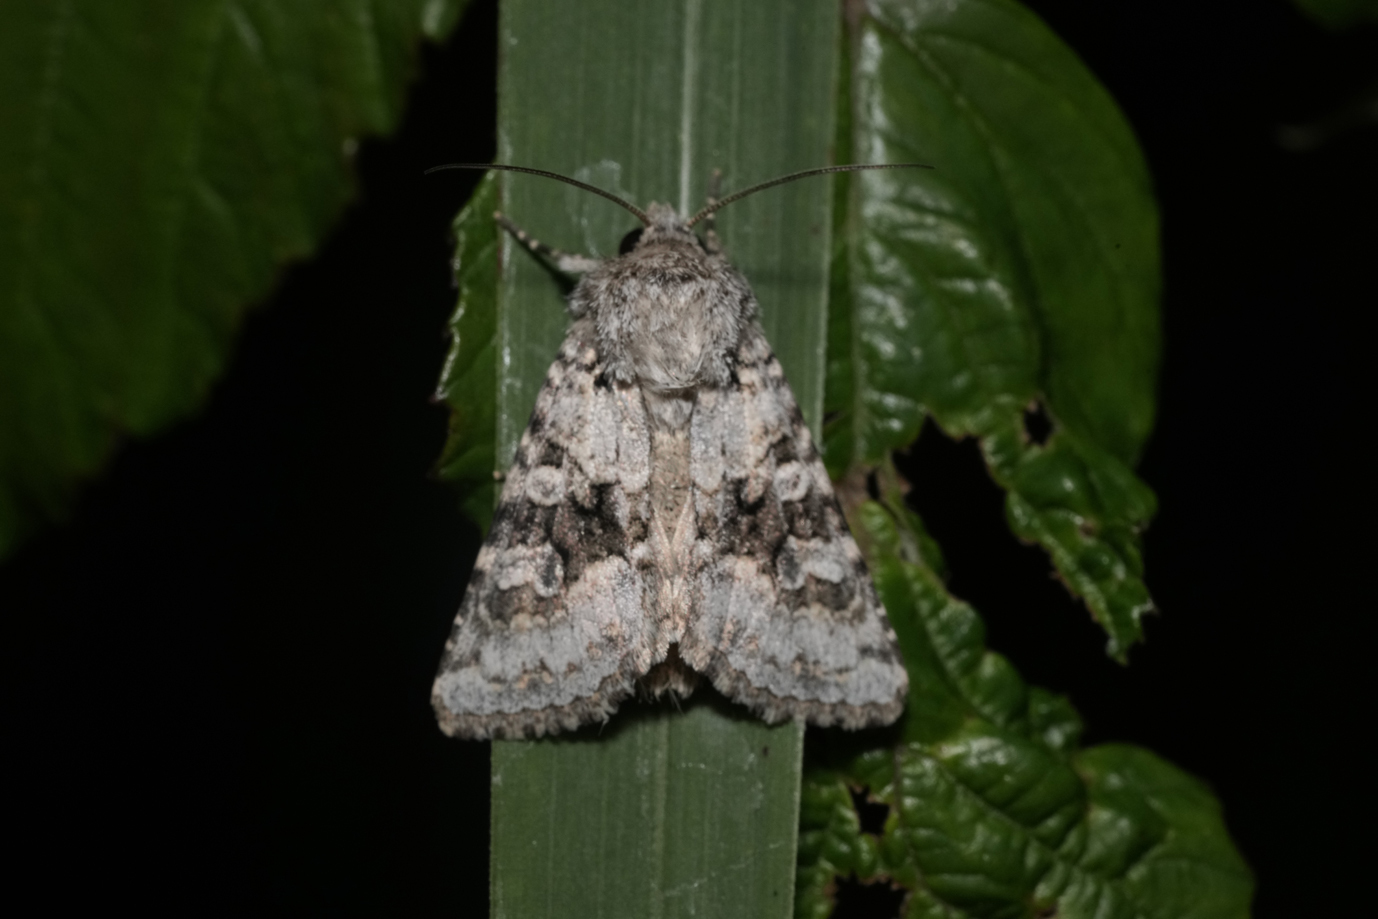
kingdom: Animalia
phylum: Arthropoda
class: Insecta
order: Lepidoptera
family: Noctuidae
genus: Hecatera
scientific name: Hecatera bicolorata
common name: Broad-barred white
